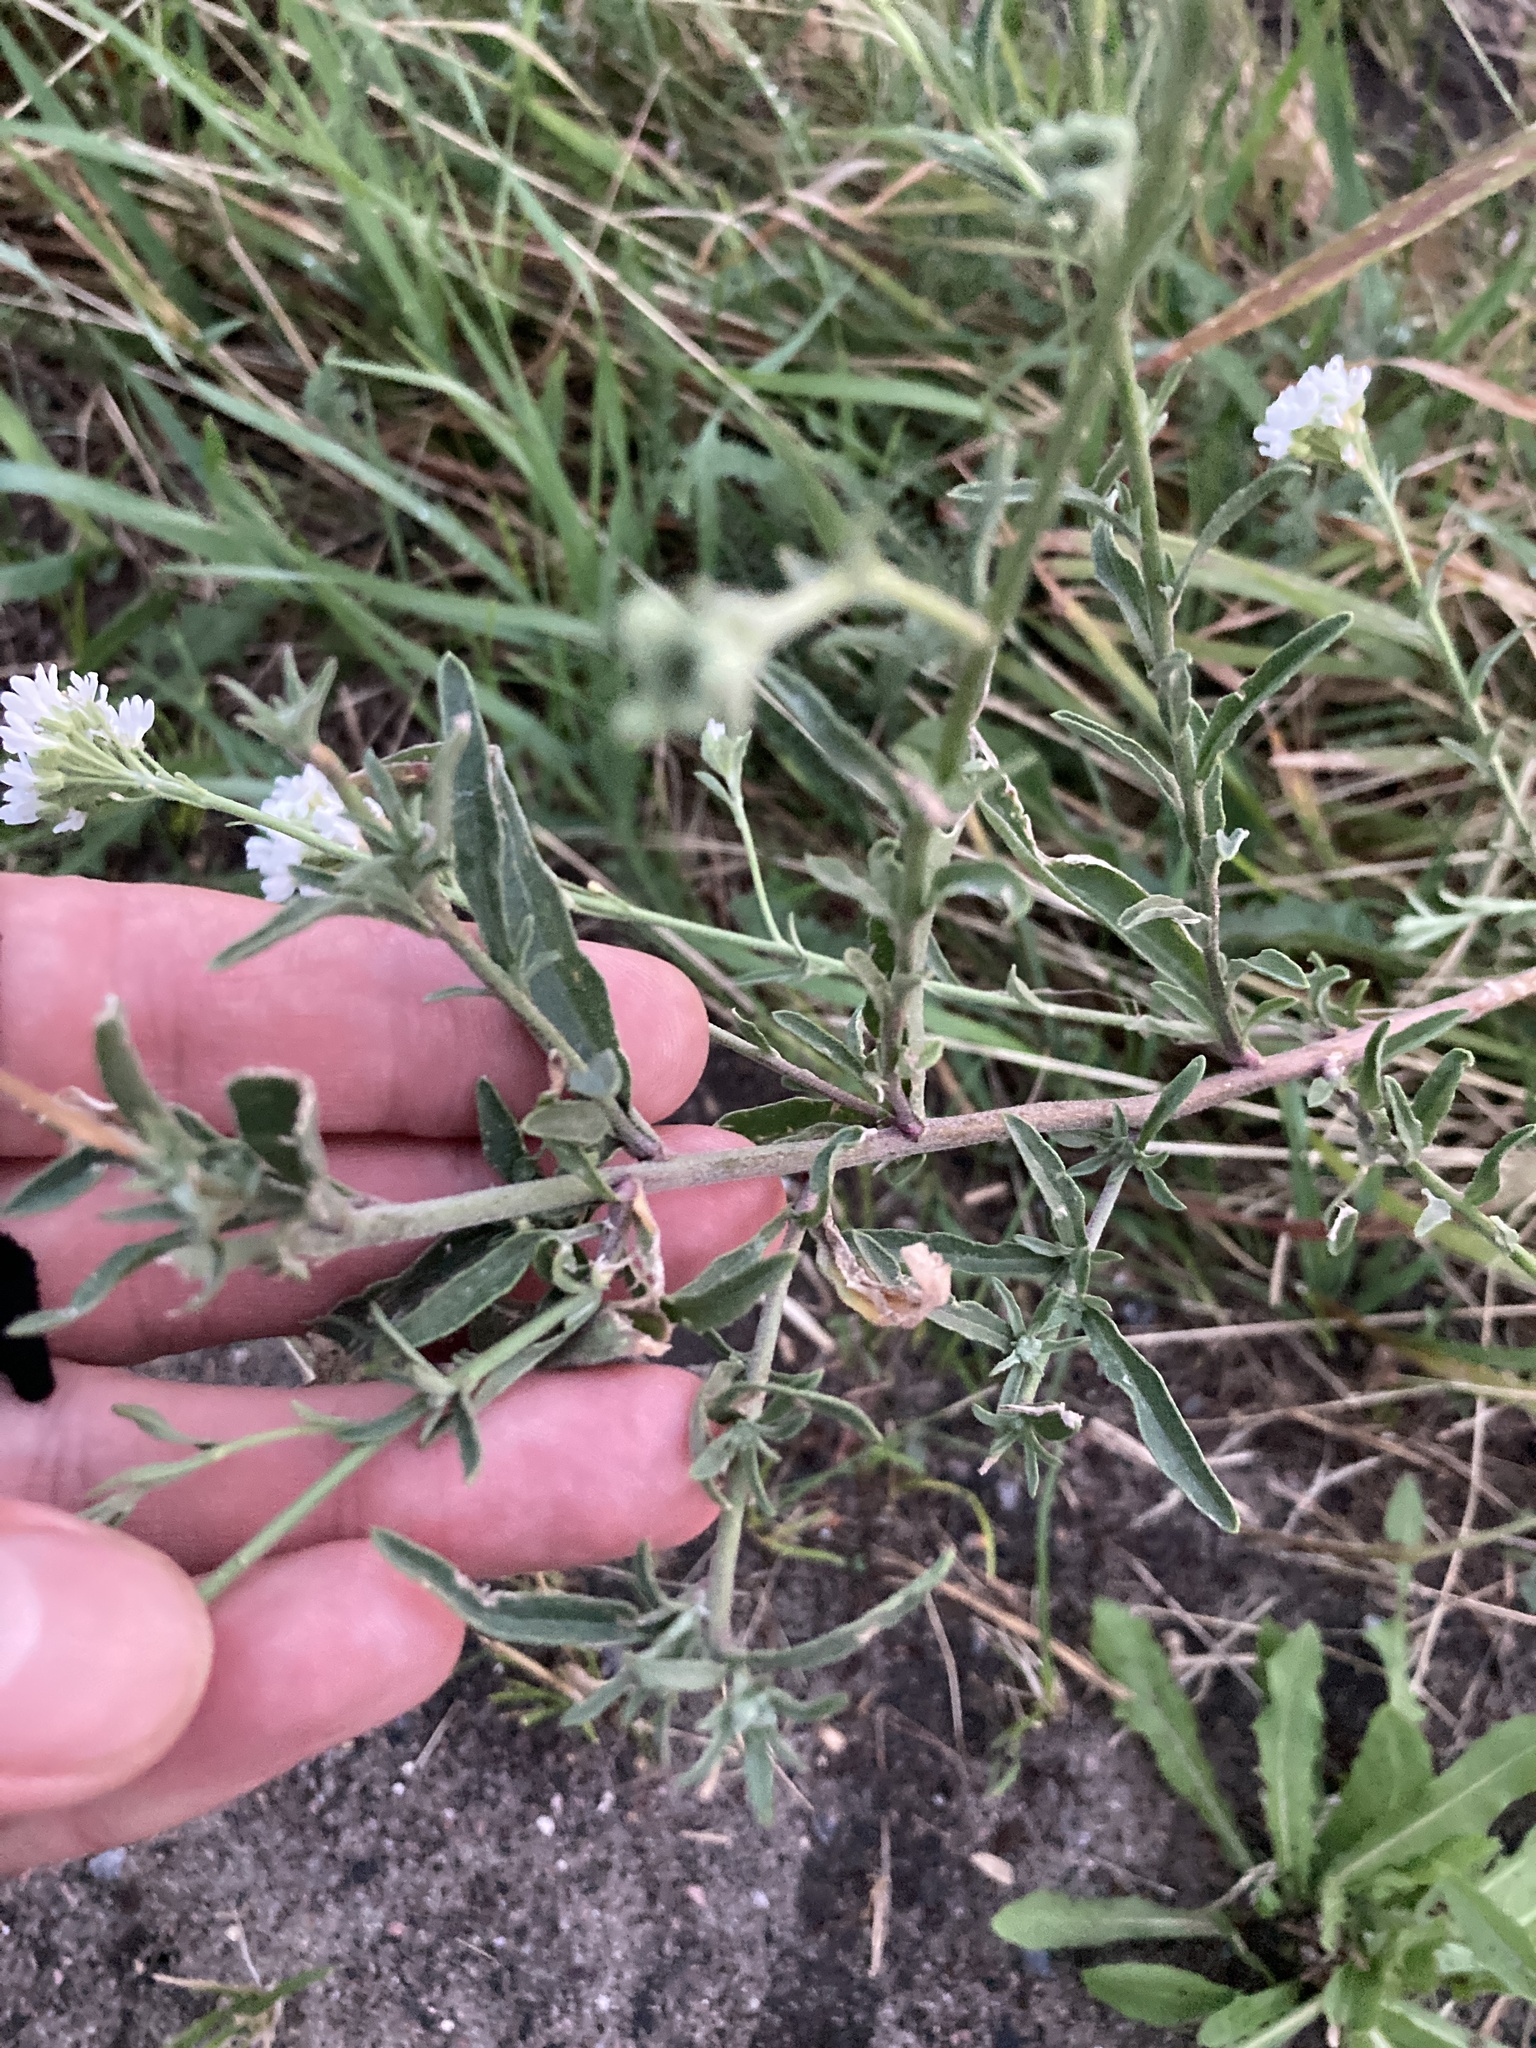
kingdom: Plantae
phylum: Tracheophyta
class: Magnoliopsida
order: Brassicales
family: Brassicaceae
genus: Berteroa
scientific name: Berteroa incana
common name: Hoary alison
